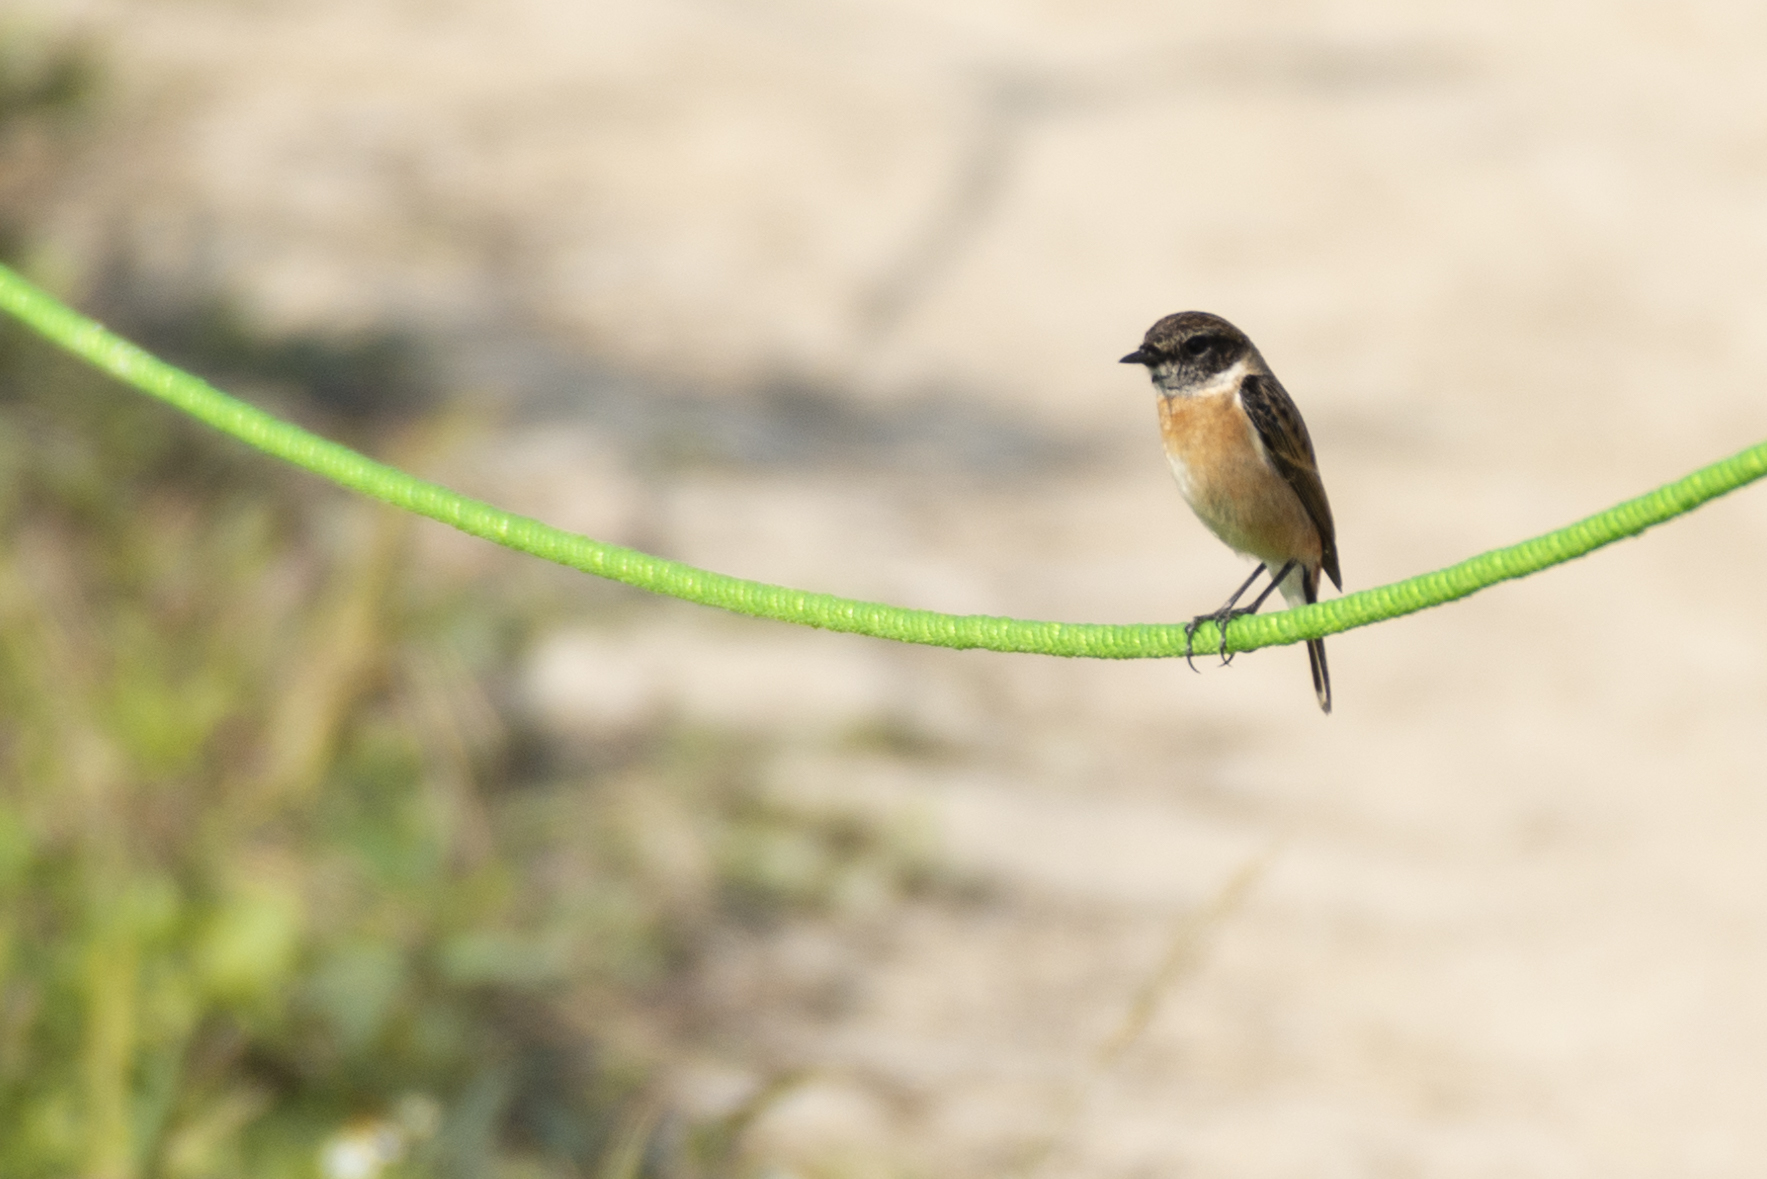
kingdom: Animalia
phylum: Chordata
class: Aves
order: Passeriformes
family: Muscicapidae
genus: Saxicola
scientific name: Saxicola maurus
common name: Siberian stonechat
